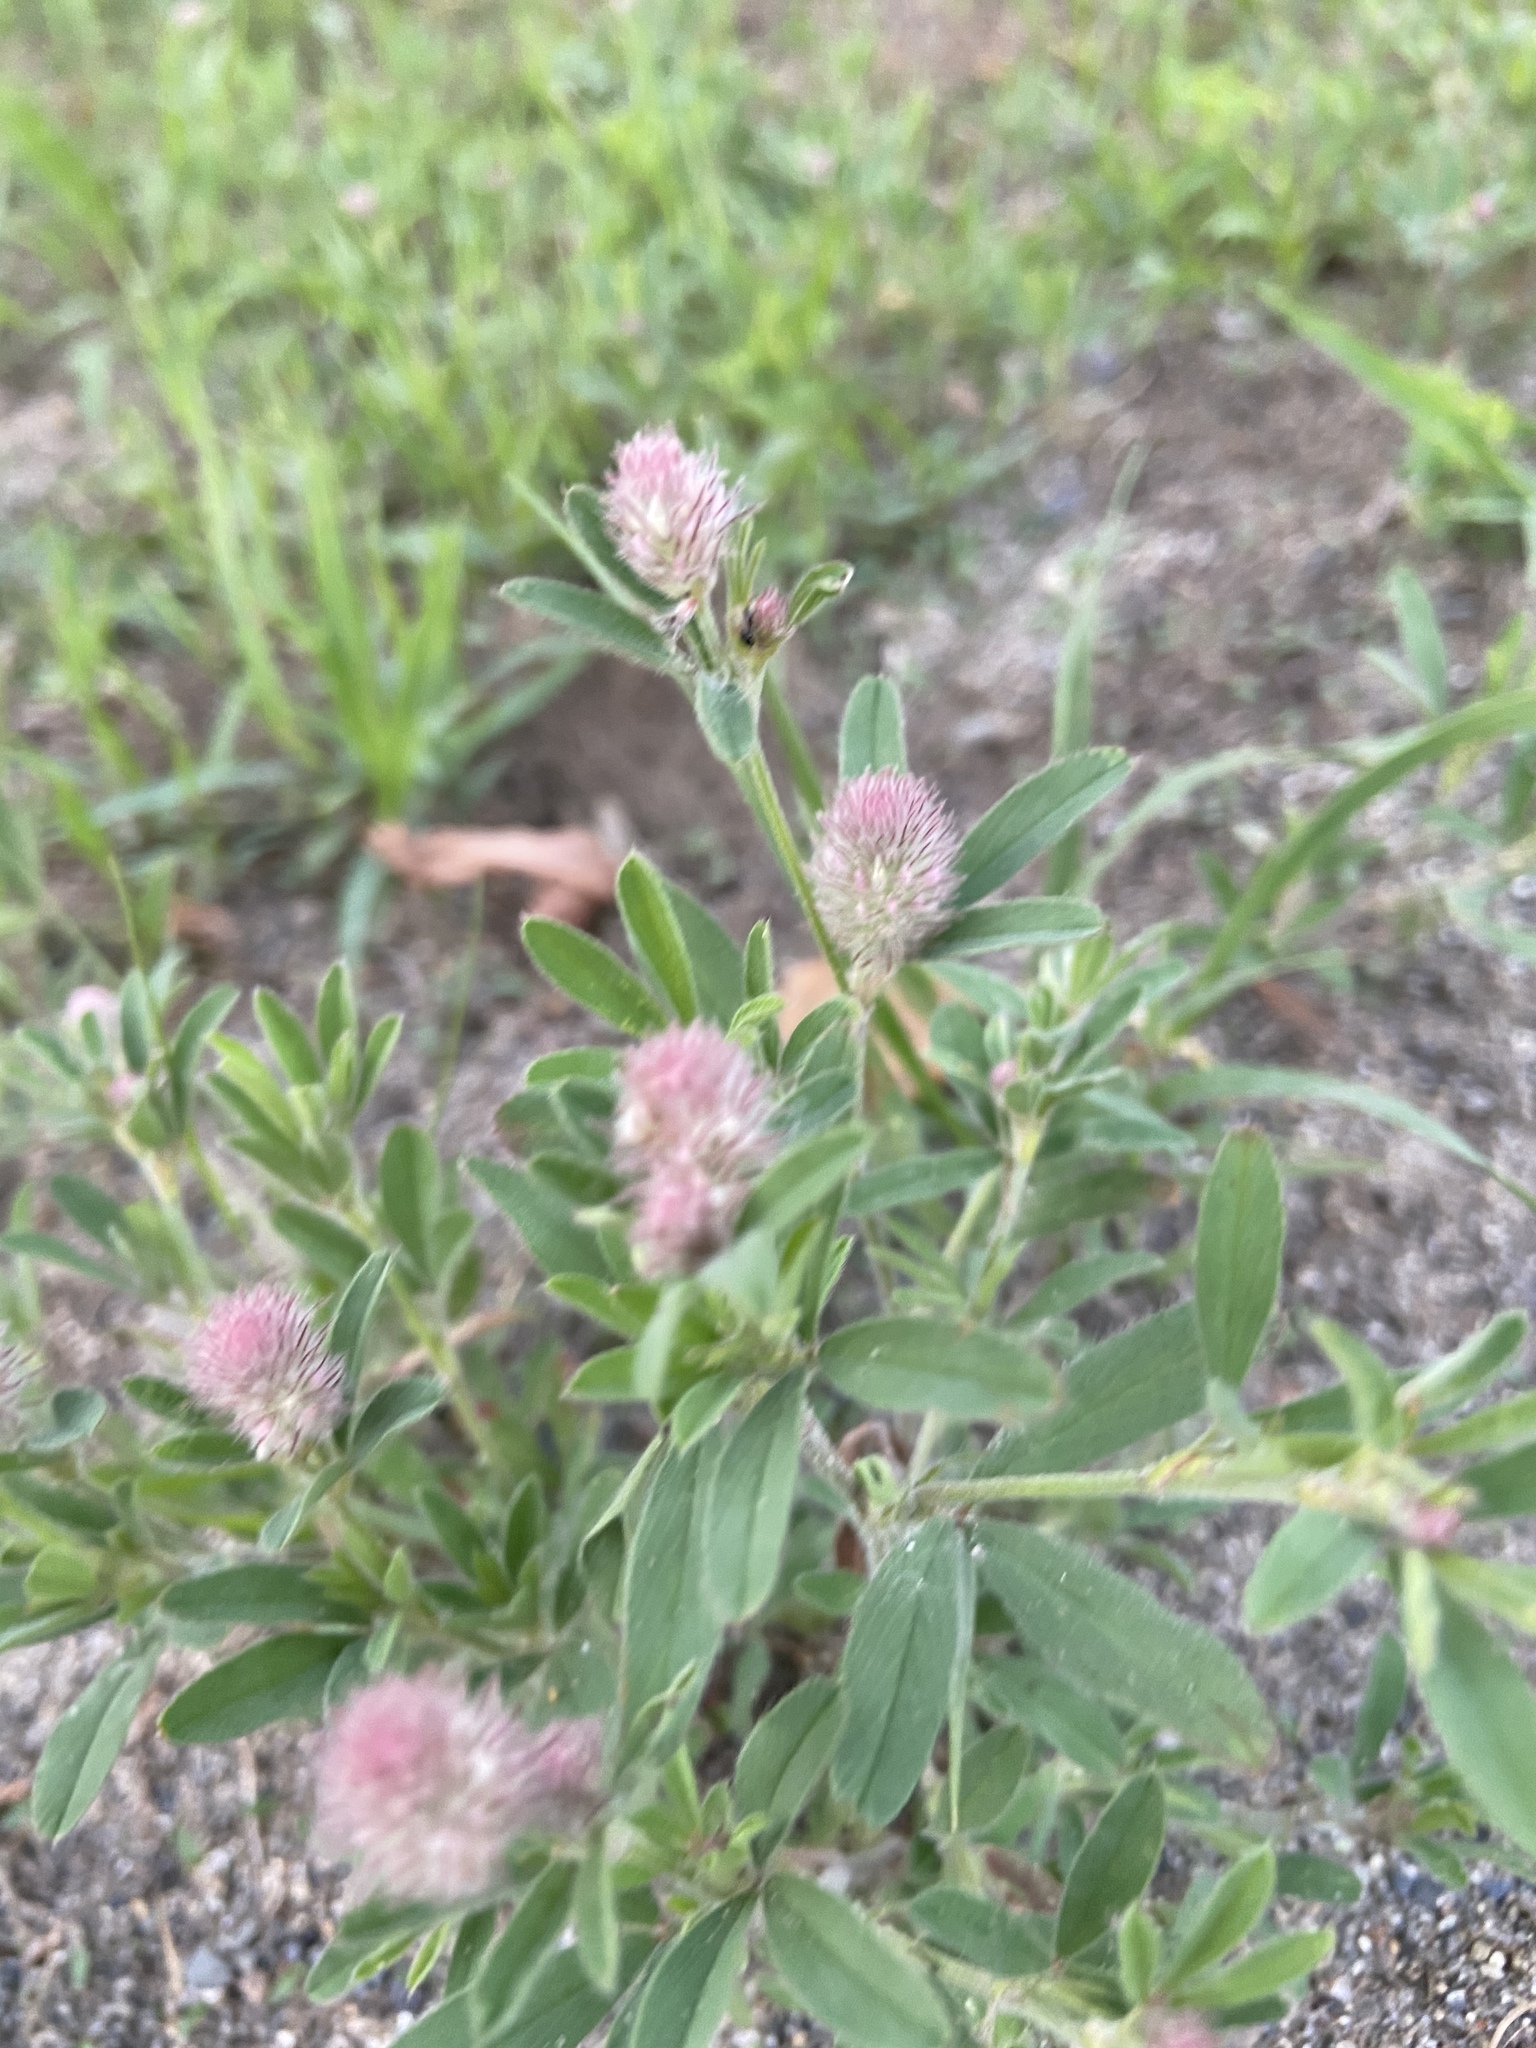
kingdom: Plantae
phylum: Tracheophyta
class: Magnoliopsida
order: Fabales
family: Fabaceae
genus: Trifolium
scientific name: Trifolium arvense
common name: Hare's-foot clover
